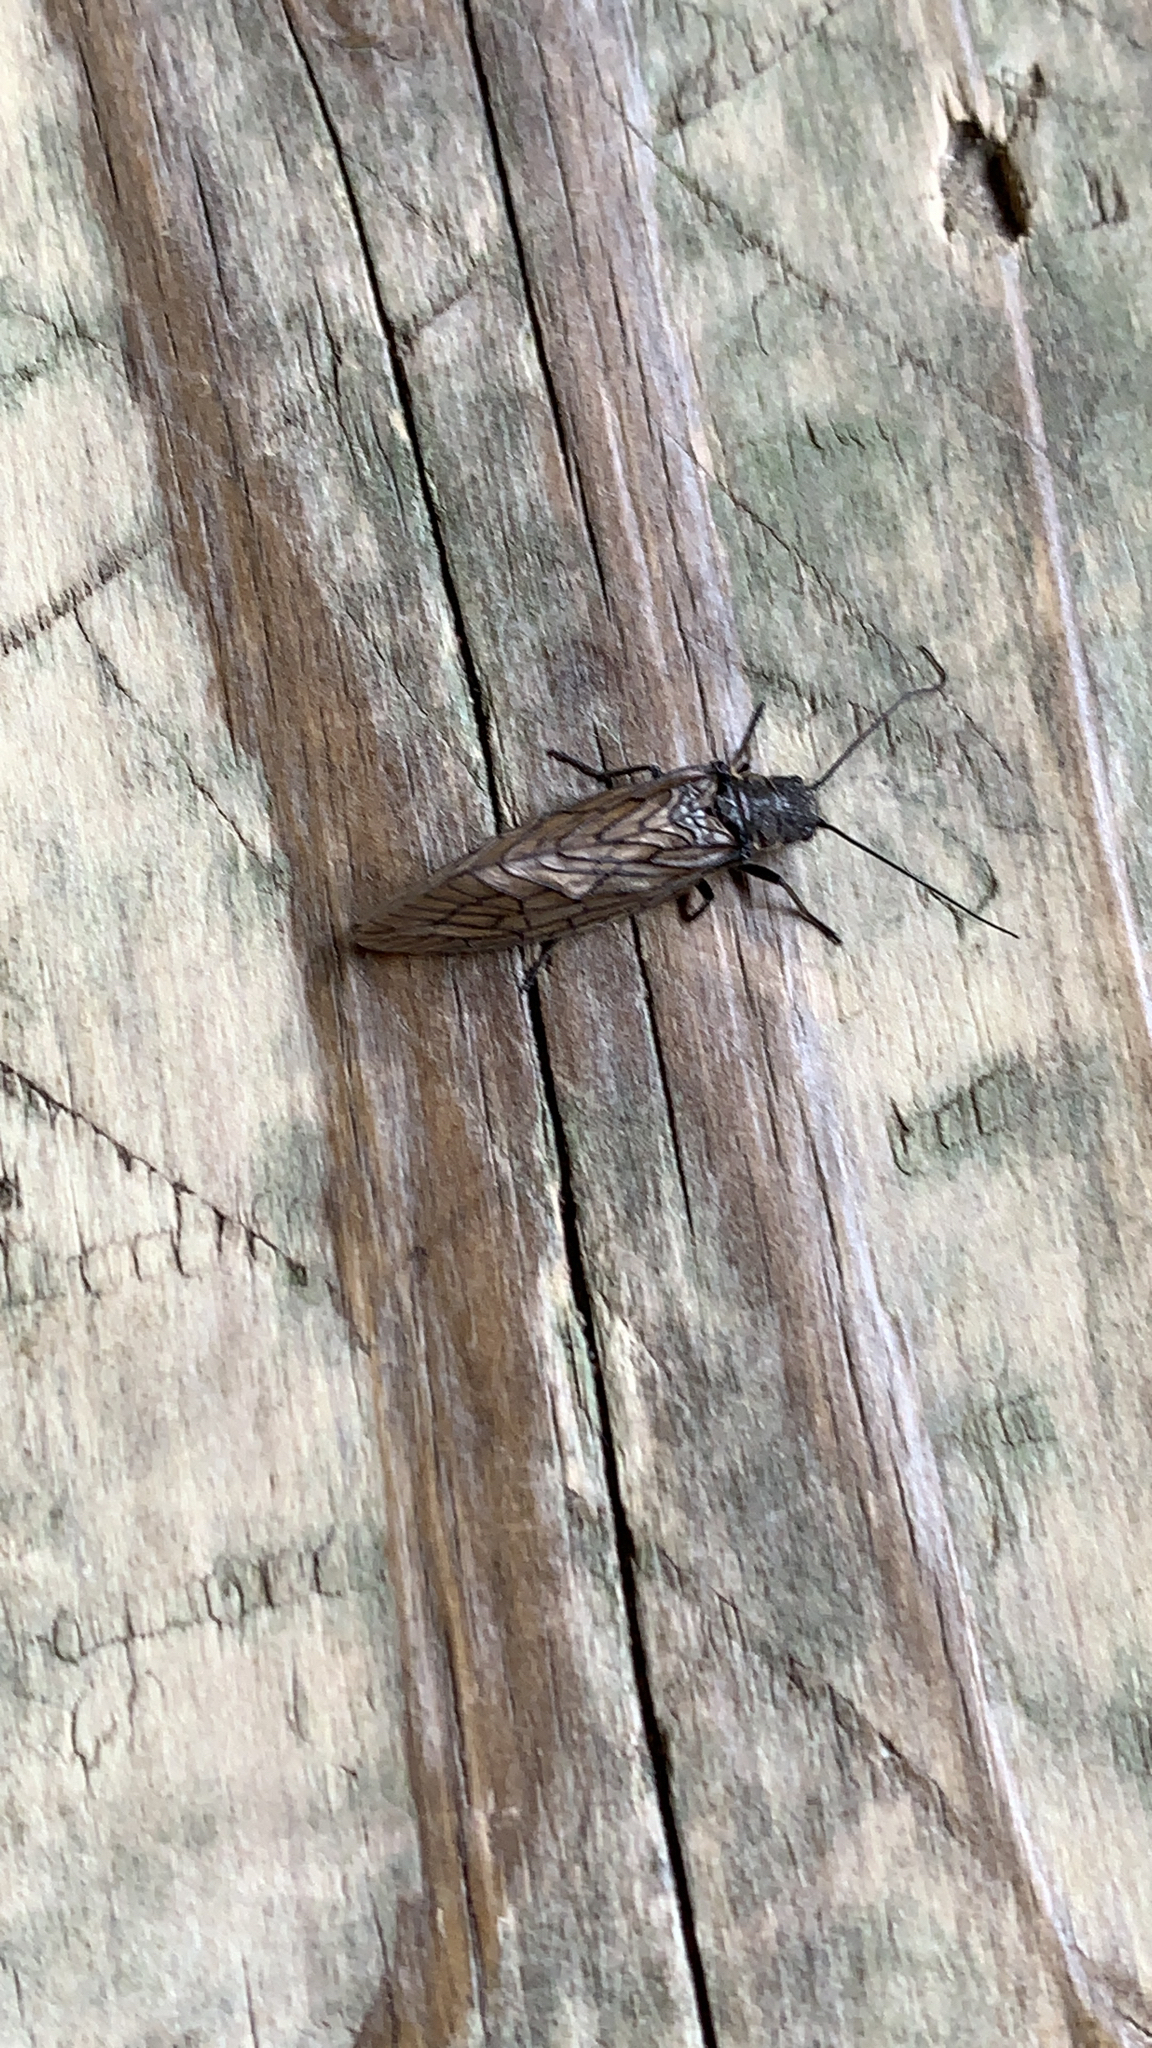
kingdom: Animalia
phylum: Arthropoda
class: Insecta
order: Megaloptera
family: Sialidae
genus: Sialis
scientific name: Sialis
